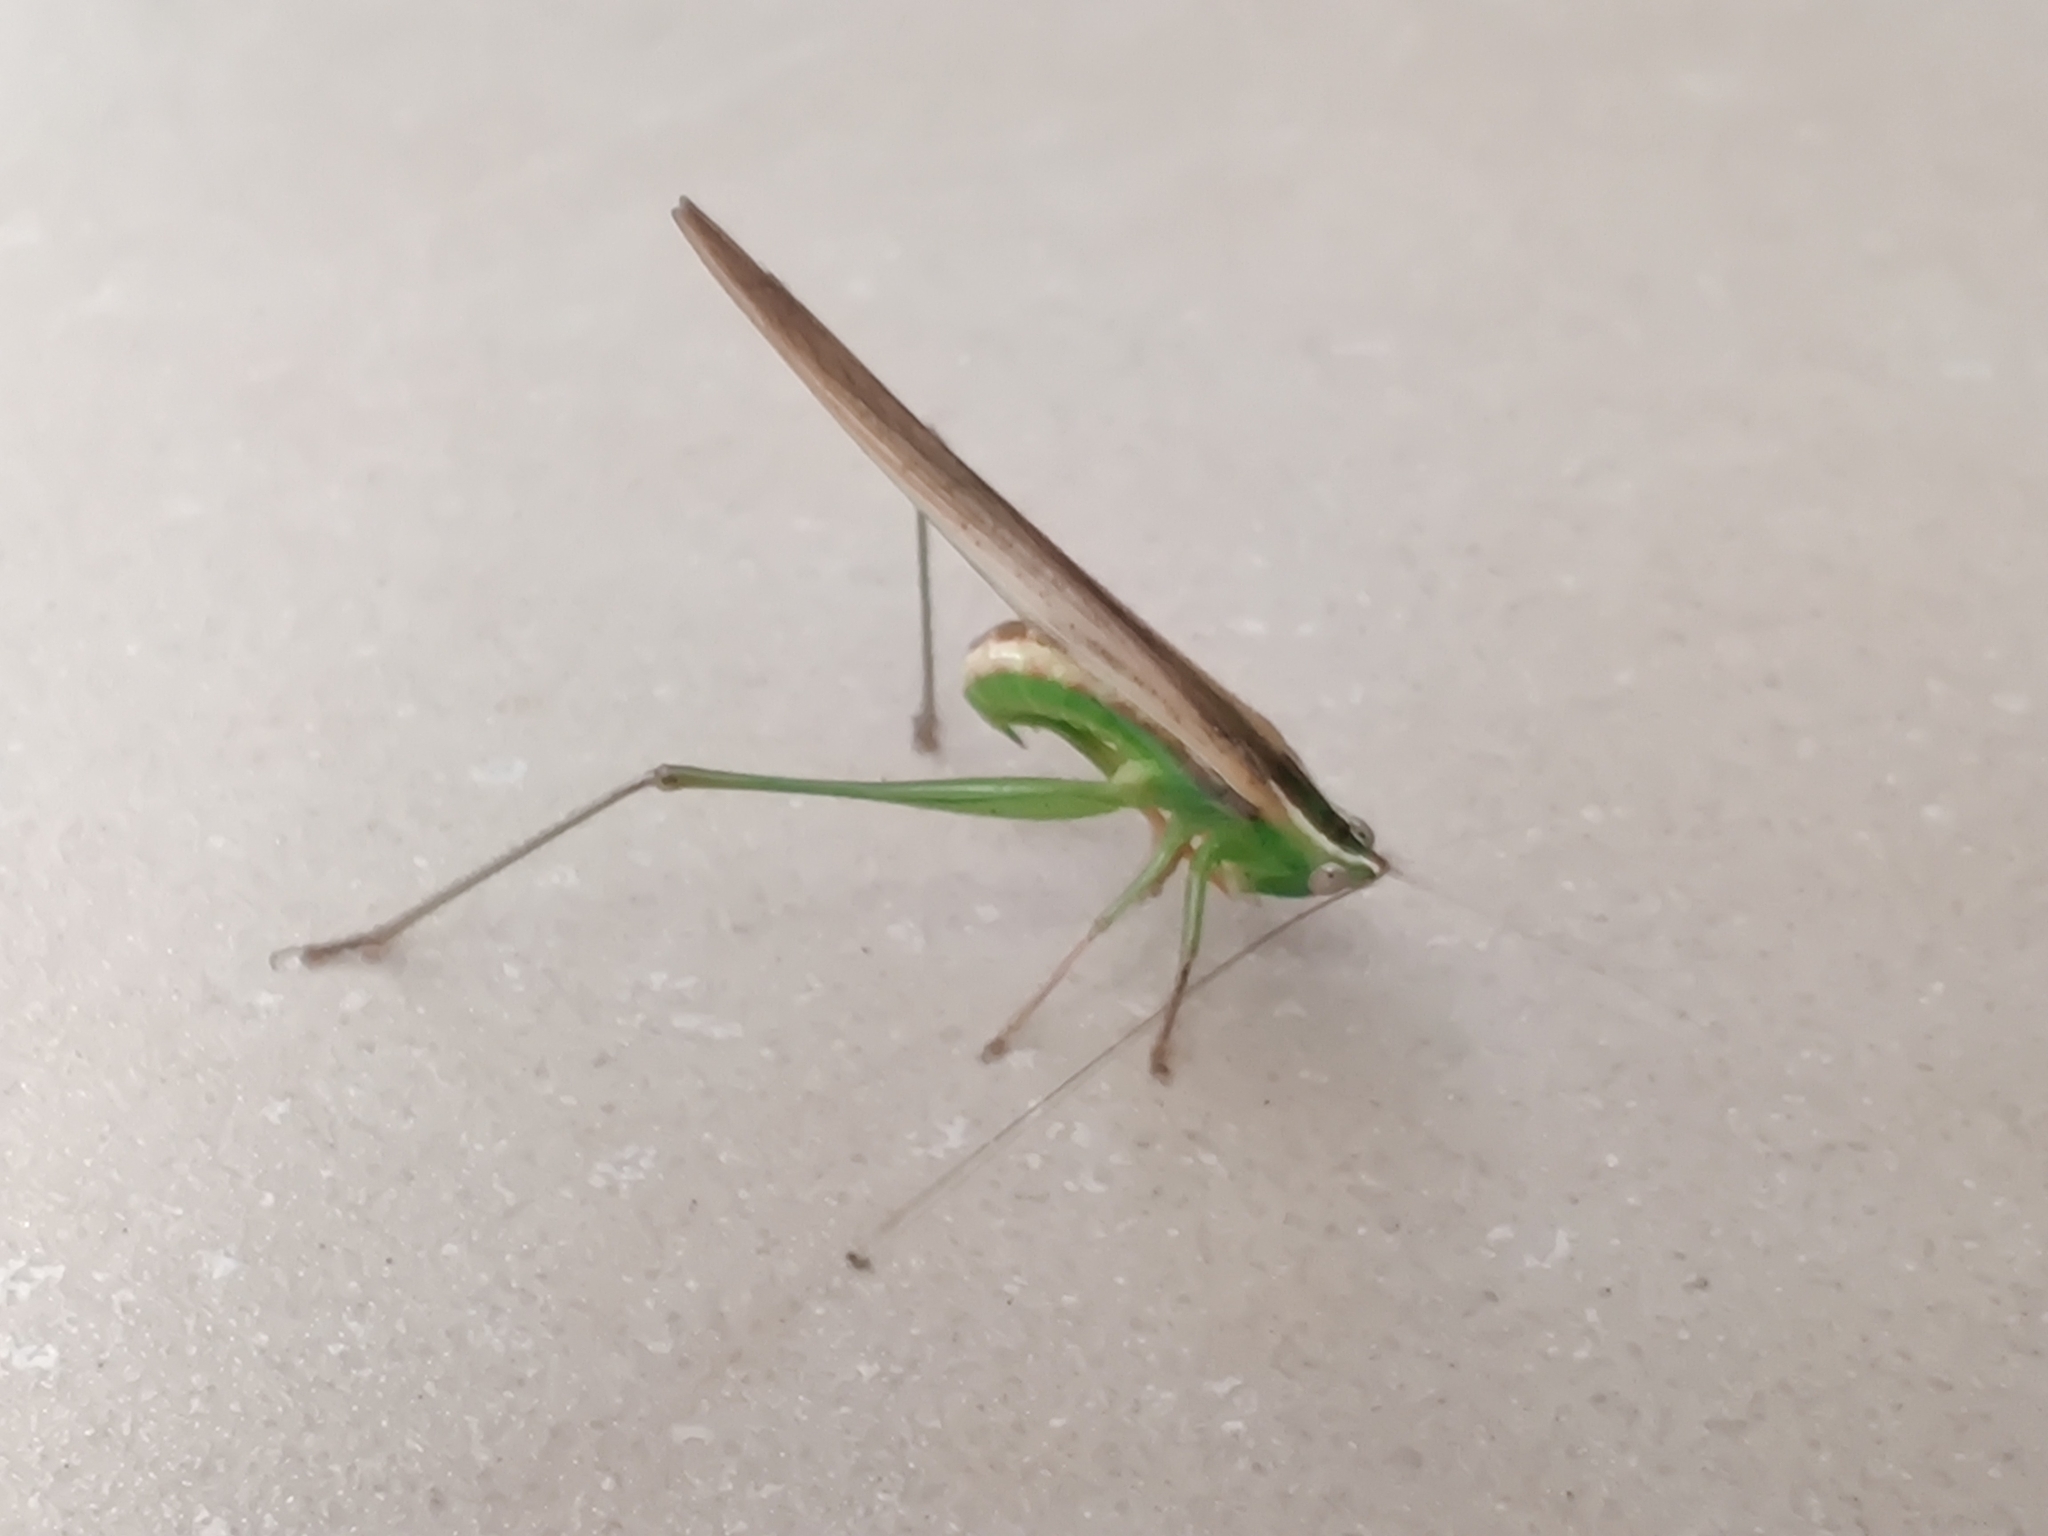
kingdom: Animalia
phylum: Arthropoda
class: Insecta
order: Orthoptera
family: Tettigoniidae
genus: Conocephalus
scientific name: Conocephalus upoluensis
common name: Upolu meadow katydid
